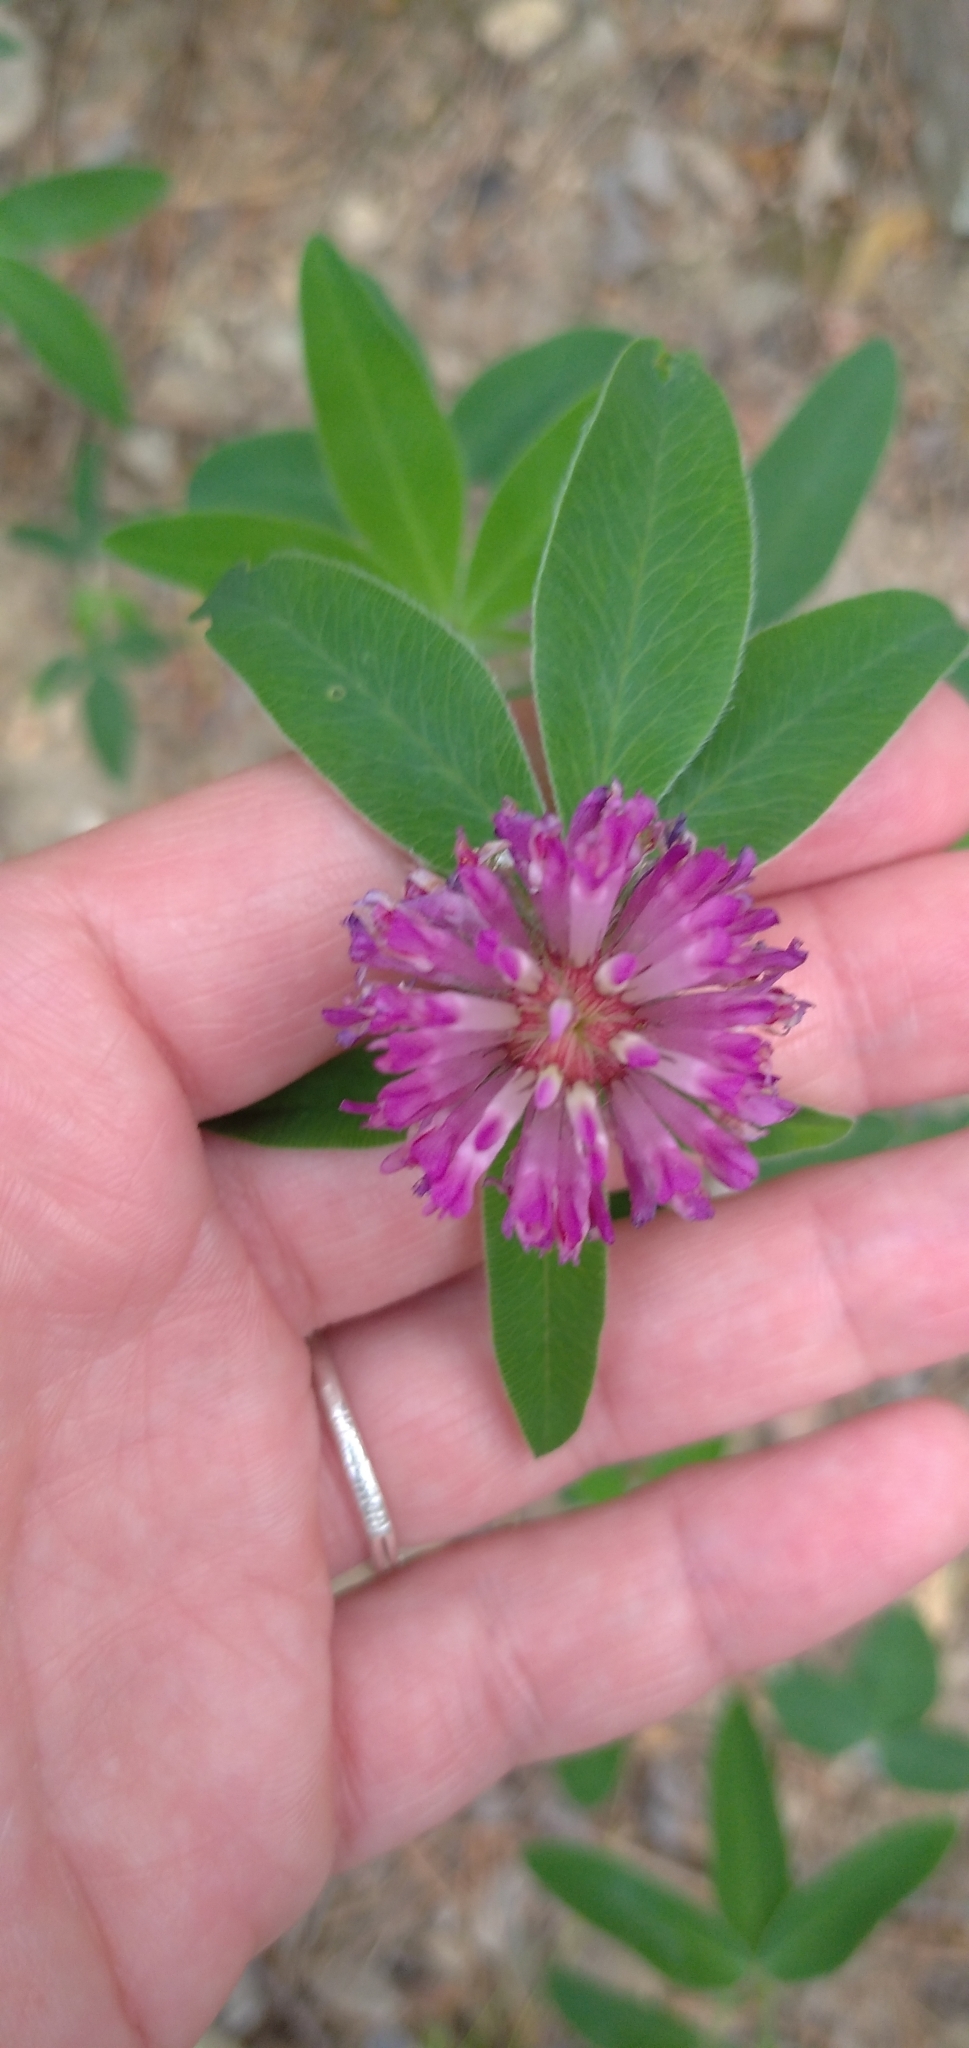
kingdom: Plantae
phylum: Tracheophyta
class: Magnoliopsida
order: Fabales
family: Fabaceae
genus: Trifolium
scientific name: Trifolium medium
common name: Zigzag clover
